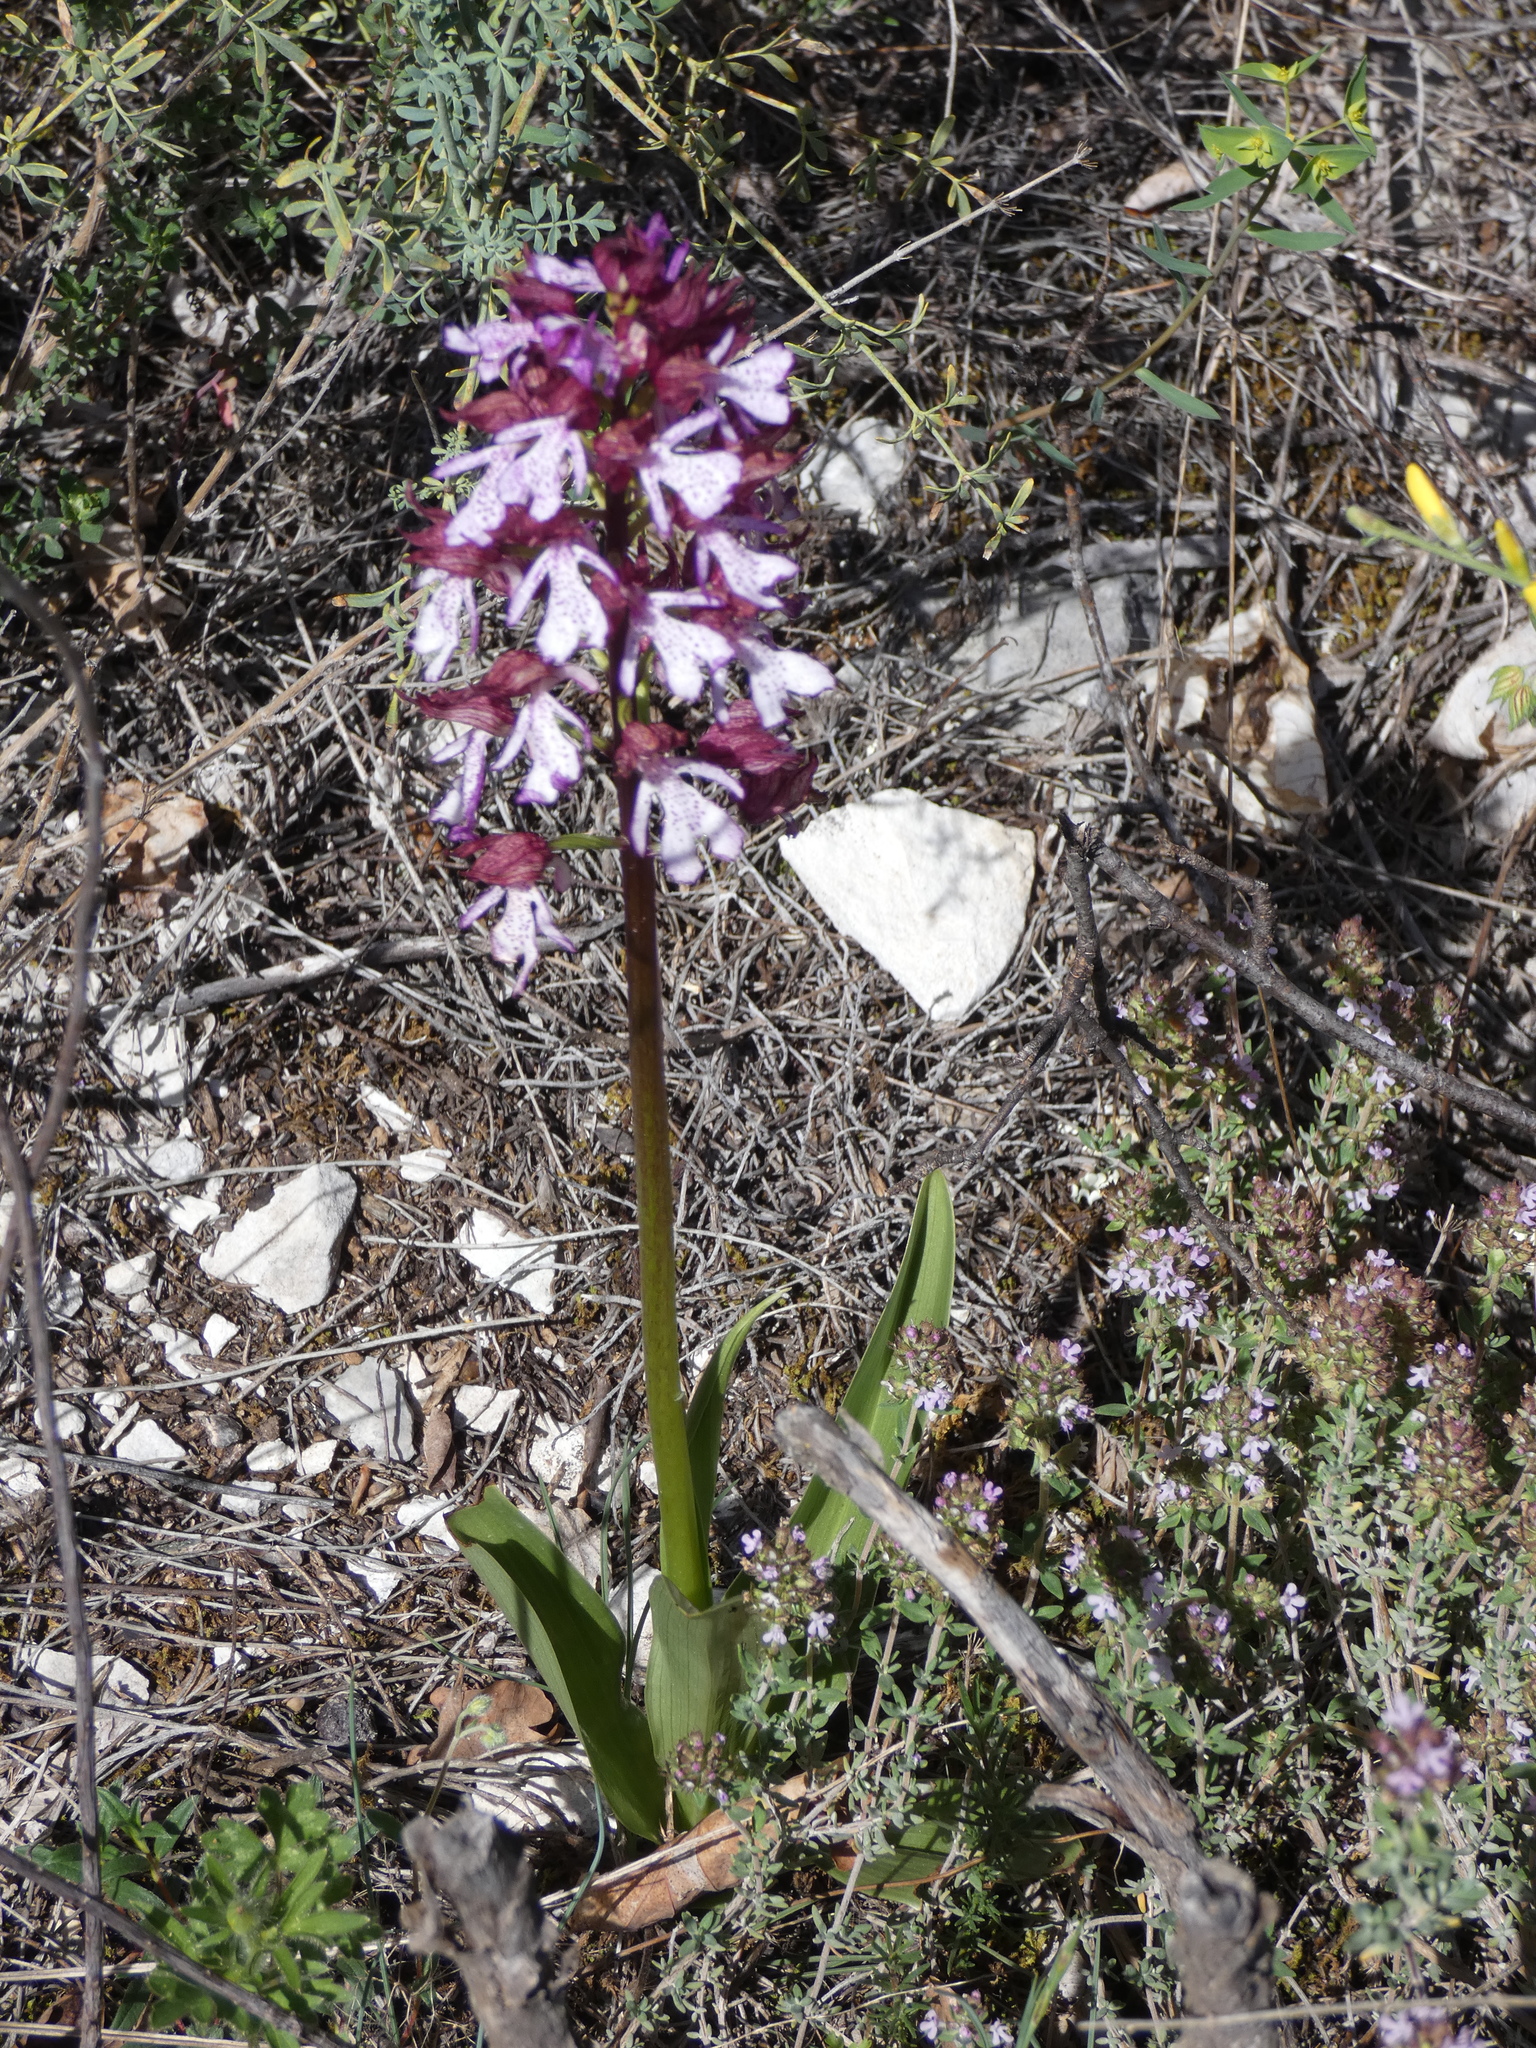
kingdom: Plantae
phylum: Tracheophyta
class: Liliopsida
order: Asparagales
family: Orchidaceae
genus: Orchis
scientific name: Orchis purpurea
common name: Lady orchid
